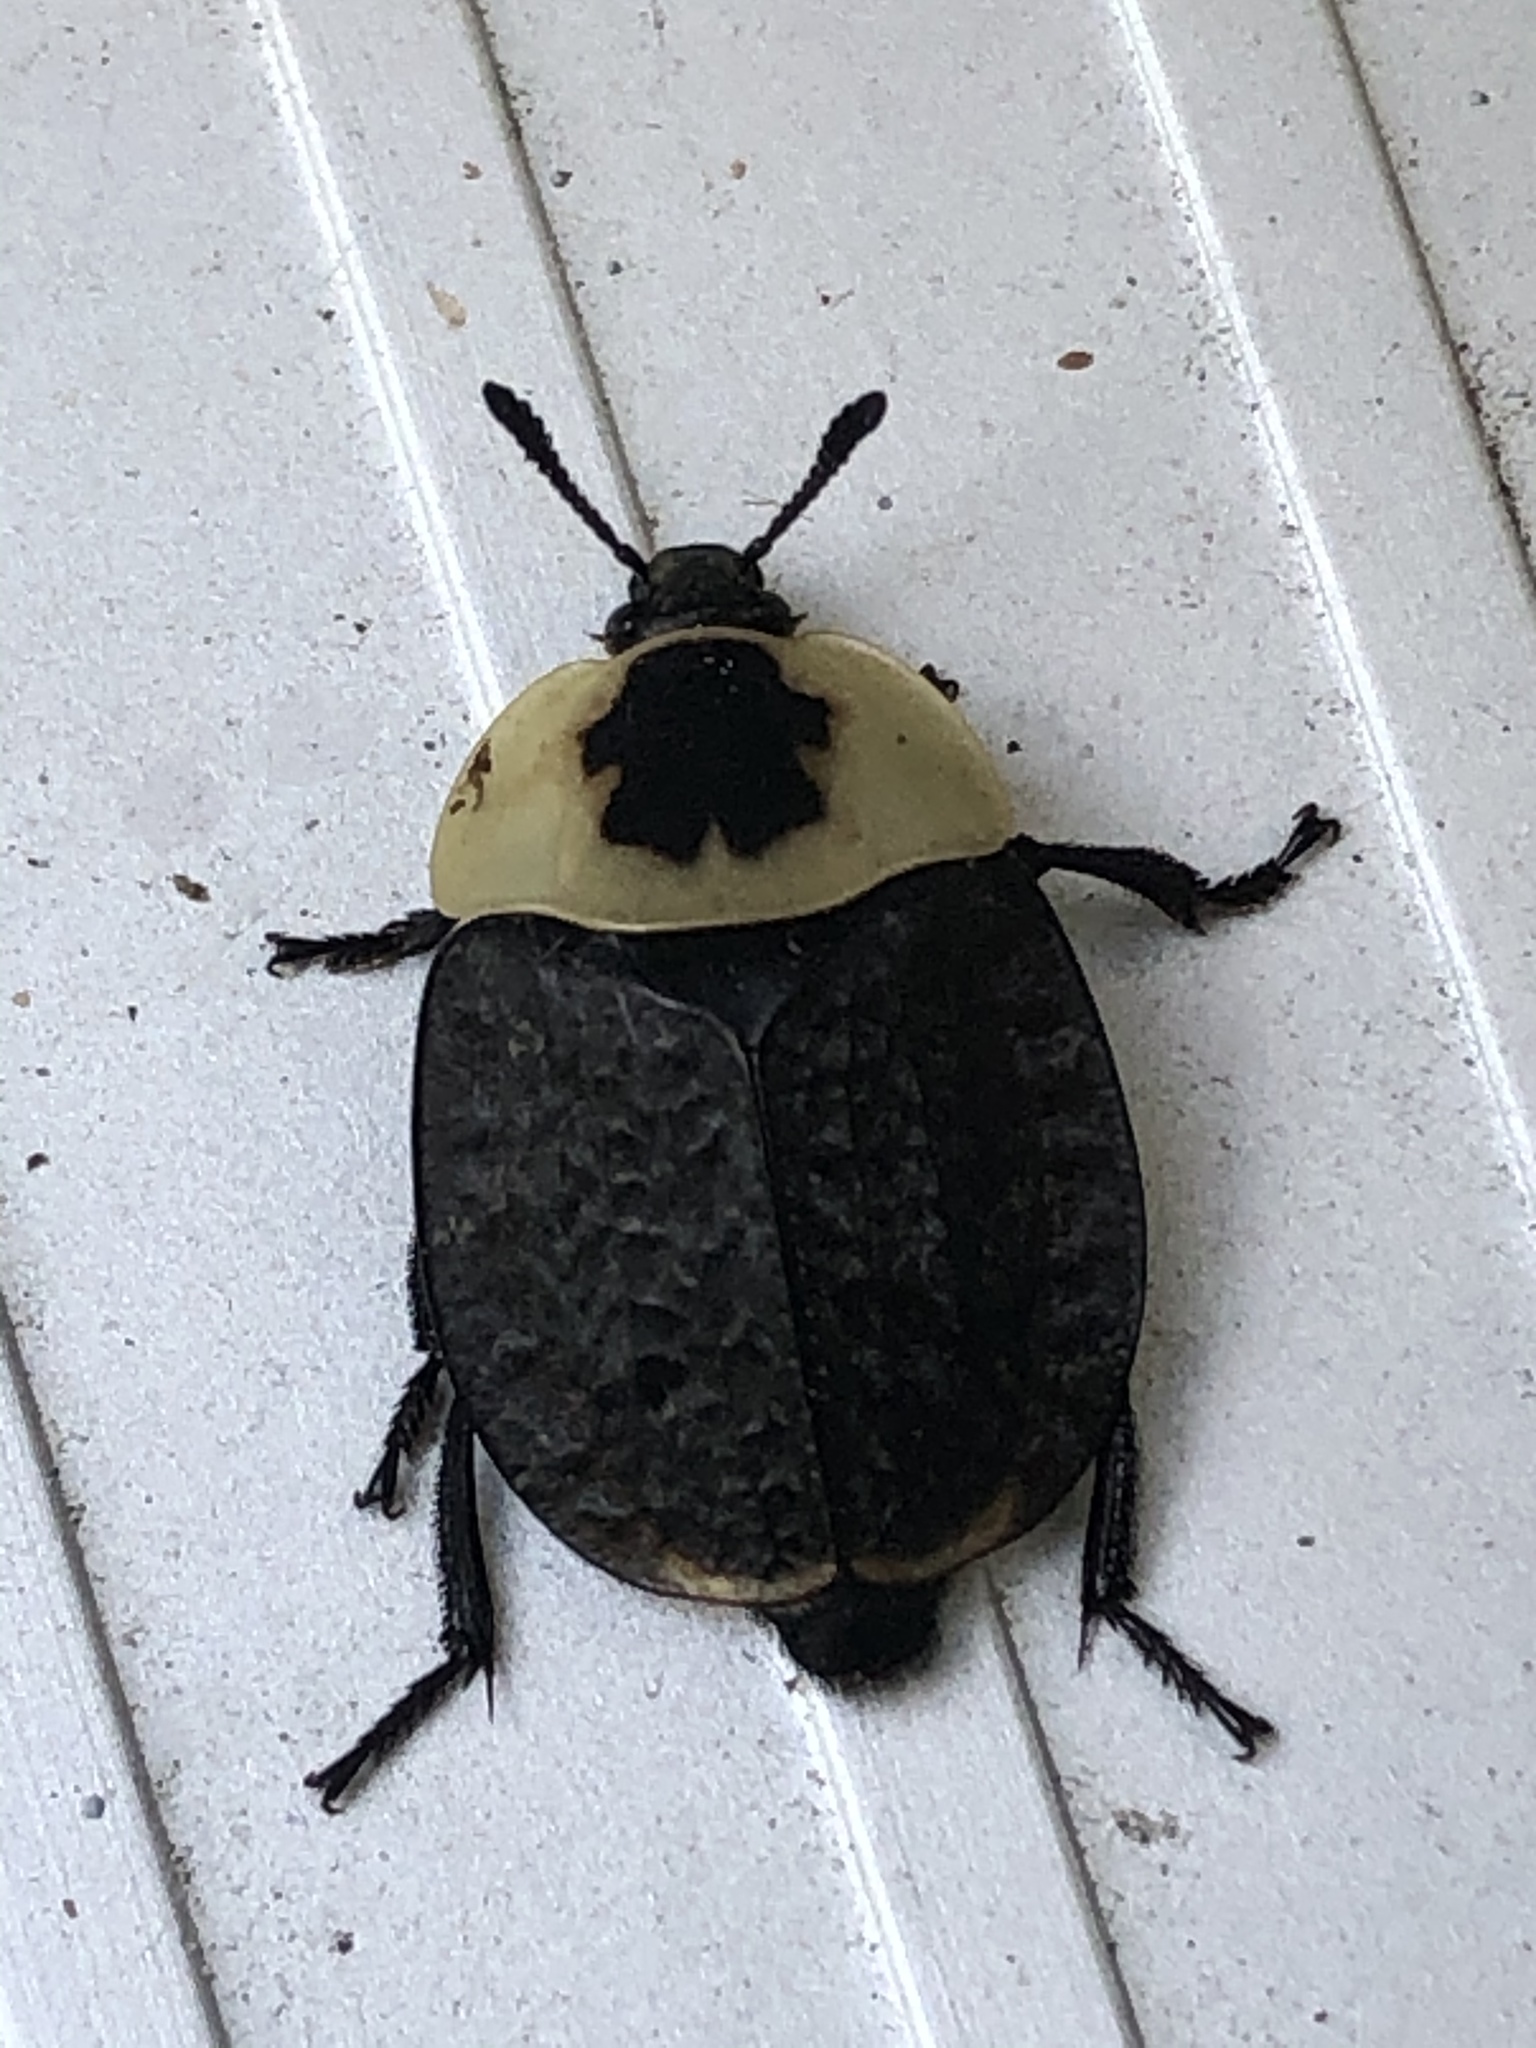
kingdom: Animalia
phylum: Arthropoda
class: Insecta
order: Coleoptera
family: Staphylinidae
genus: Necrophila
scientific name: Necrophila americana
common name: American carrion beetle
